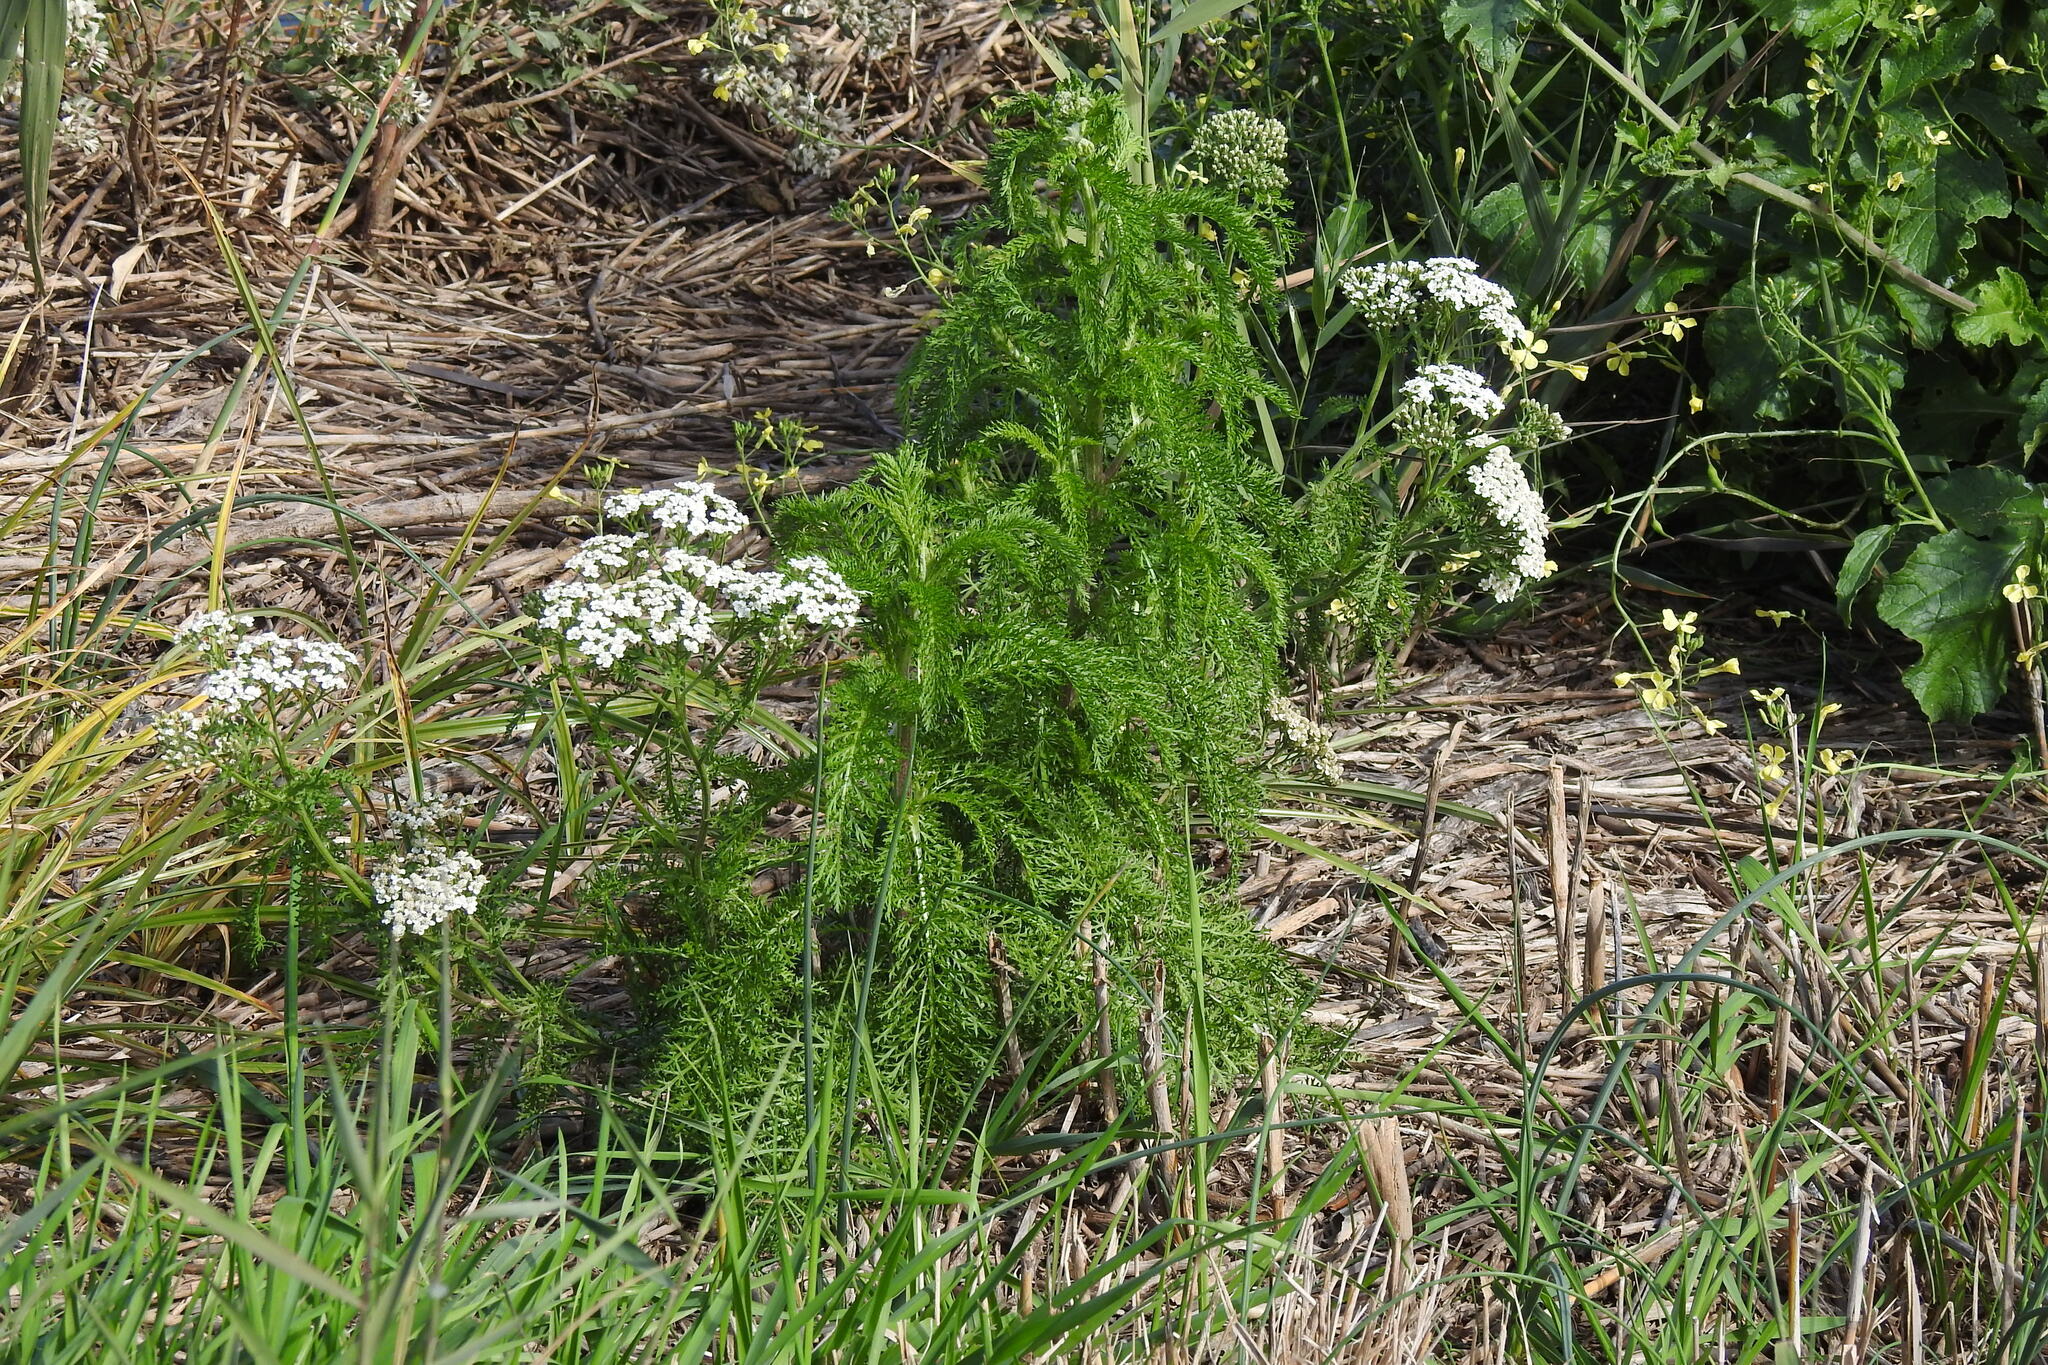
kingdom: Plantae
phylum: Tracheophyta
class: Magnoliopsida
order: Asterales
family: Asteraceae
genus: Achillea
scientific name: Achillea millefolium
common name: Yarrow
